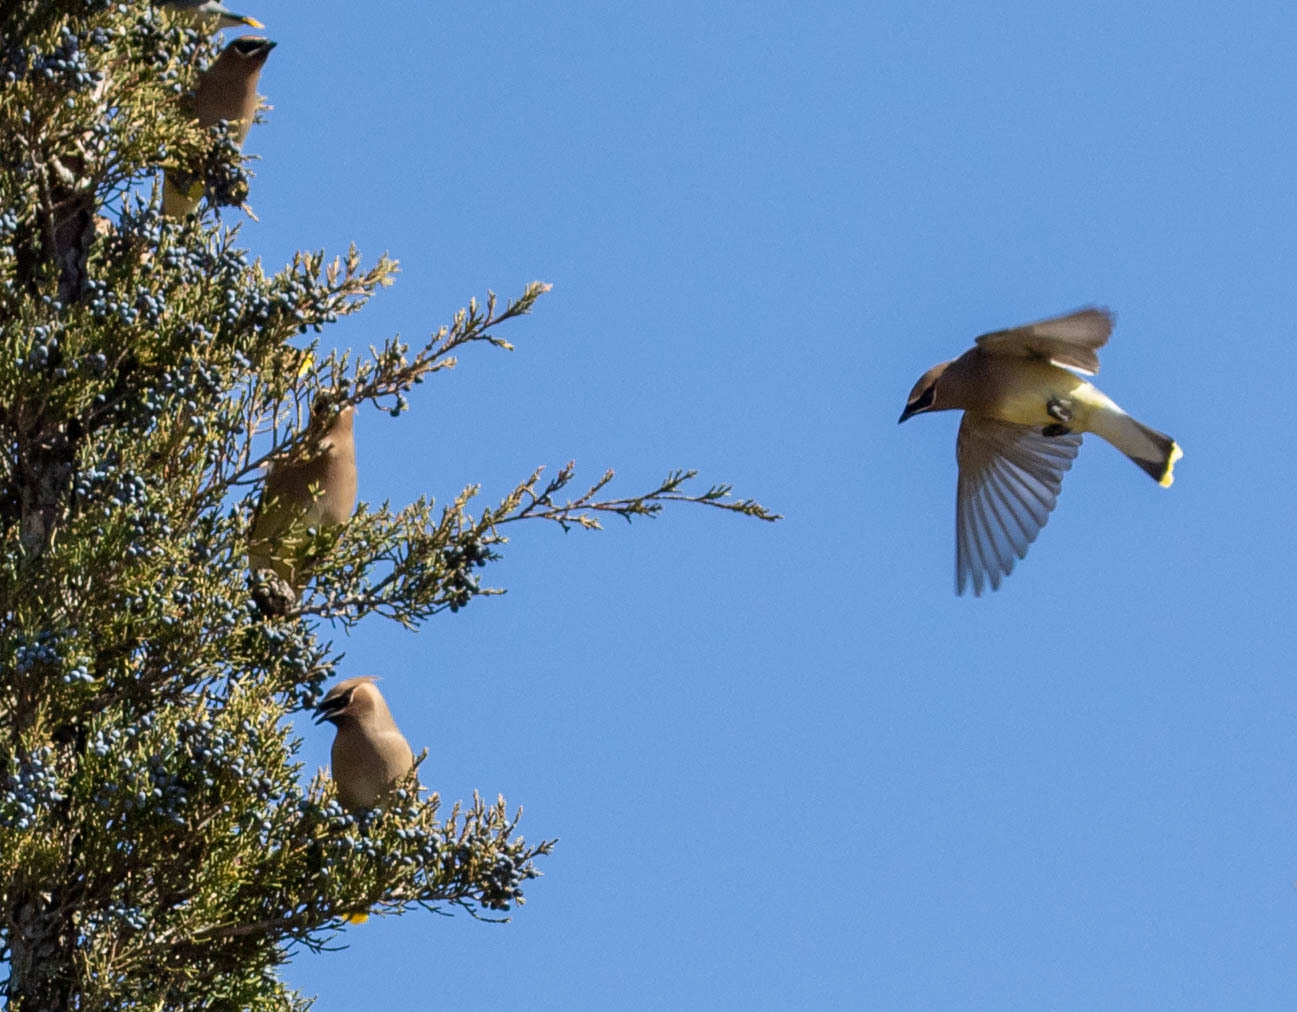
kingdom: Animalia
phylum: Chordata
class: Aves
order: Passeriformes
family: Bombycillidae
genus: Bombycilla
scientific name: Bombycilla cedrorum
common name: Cedar waxwing
